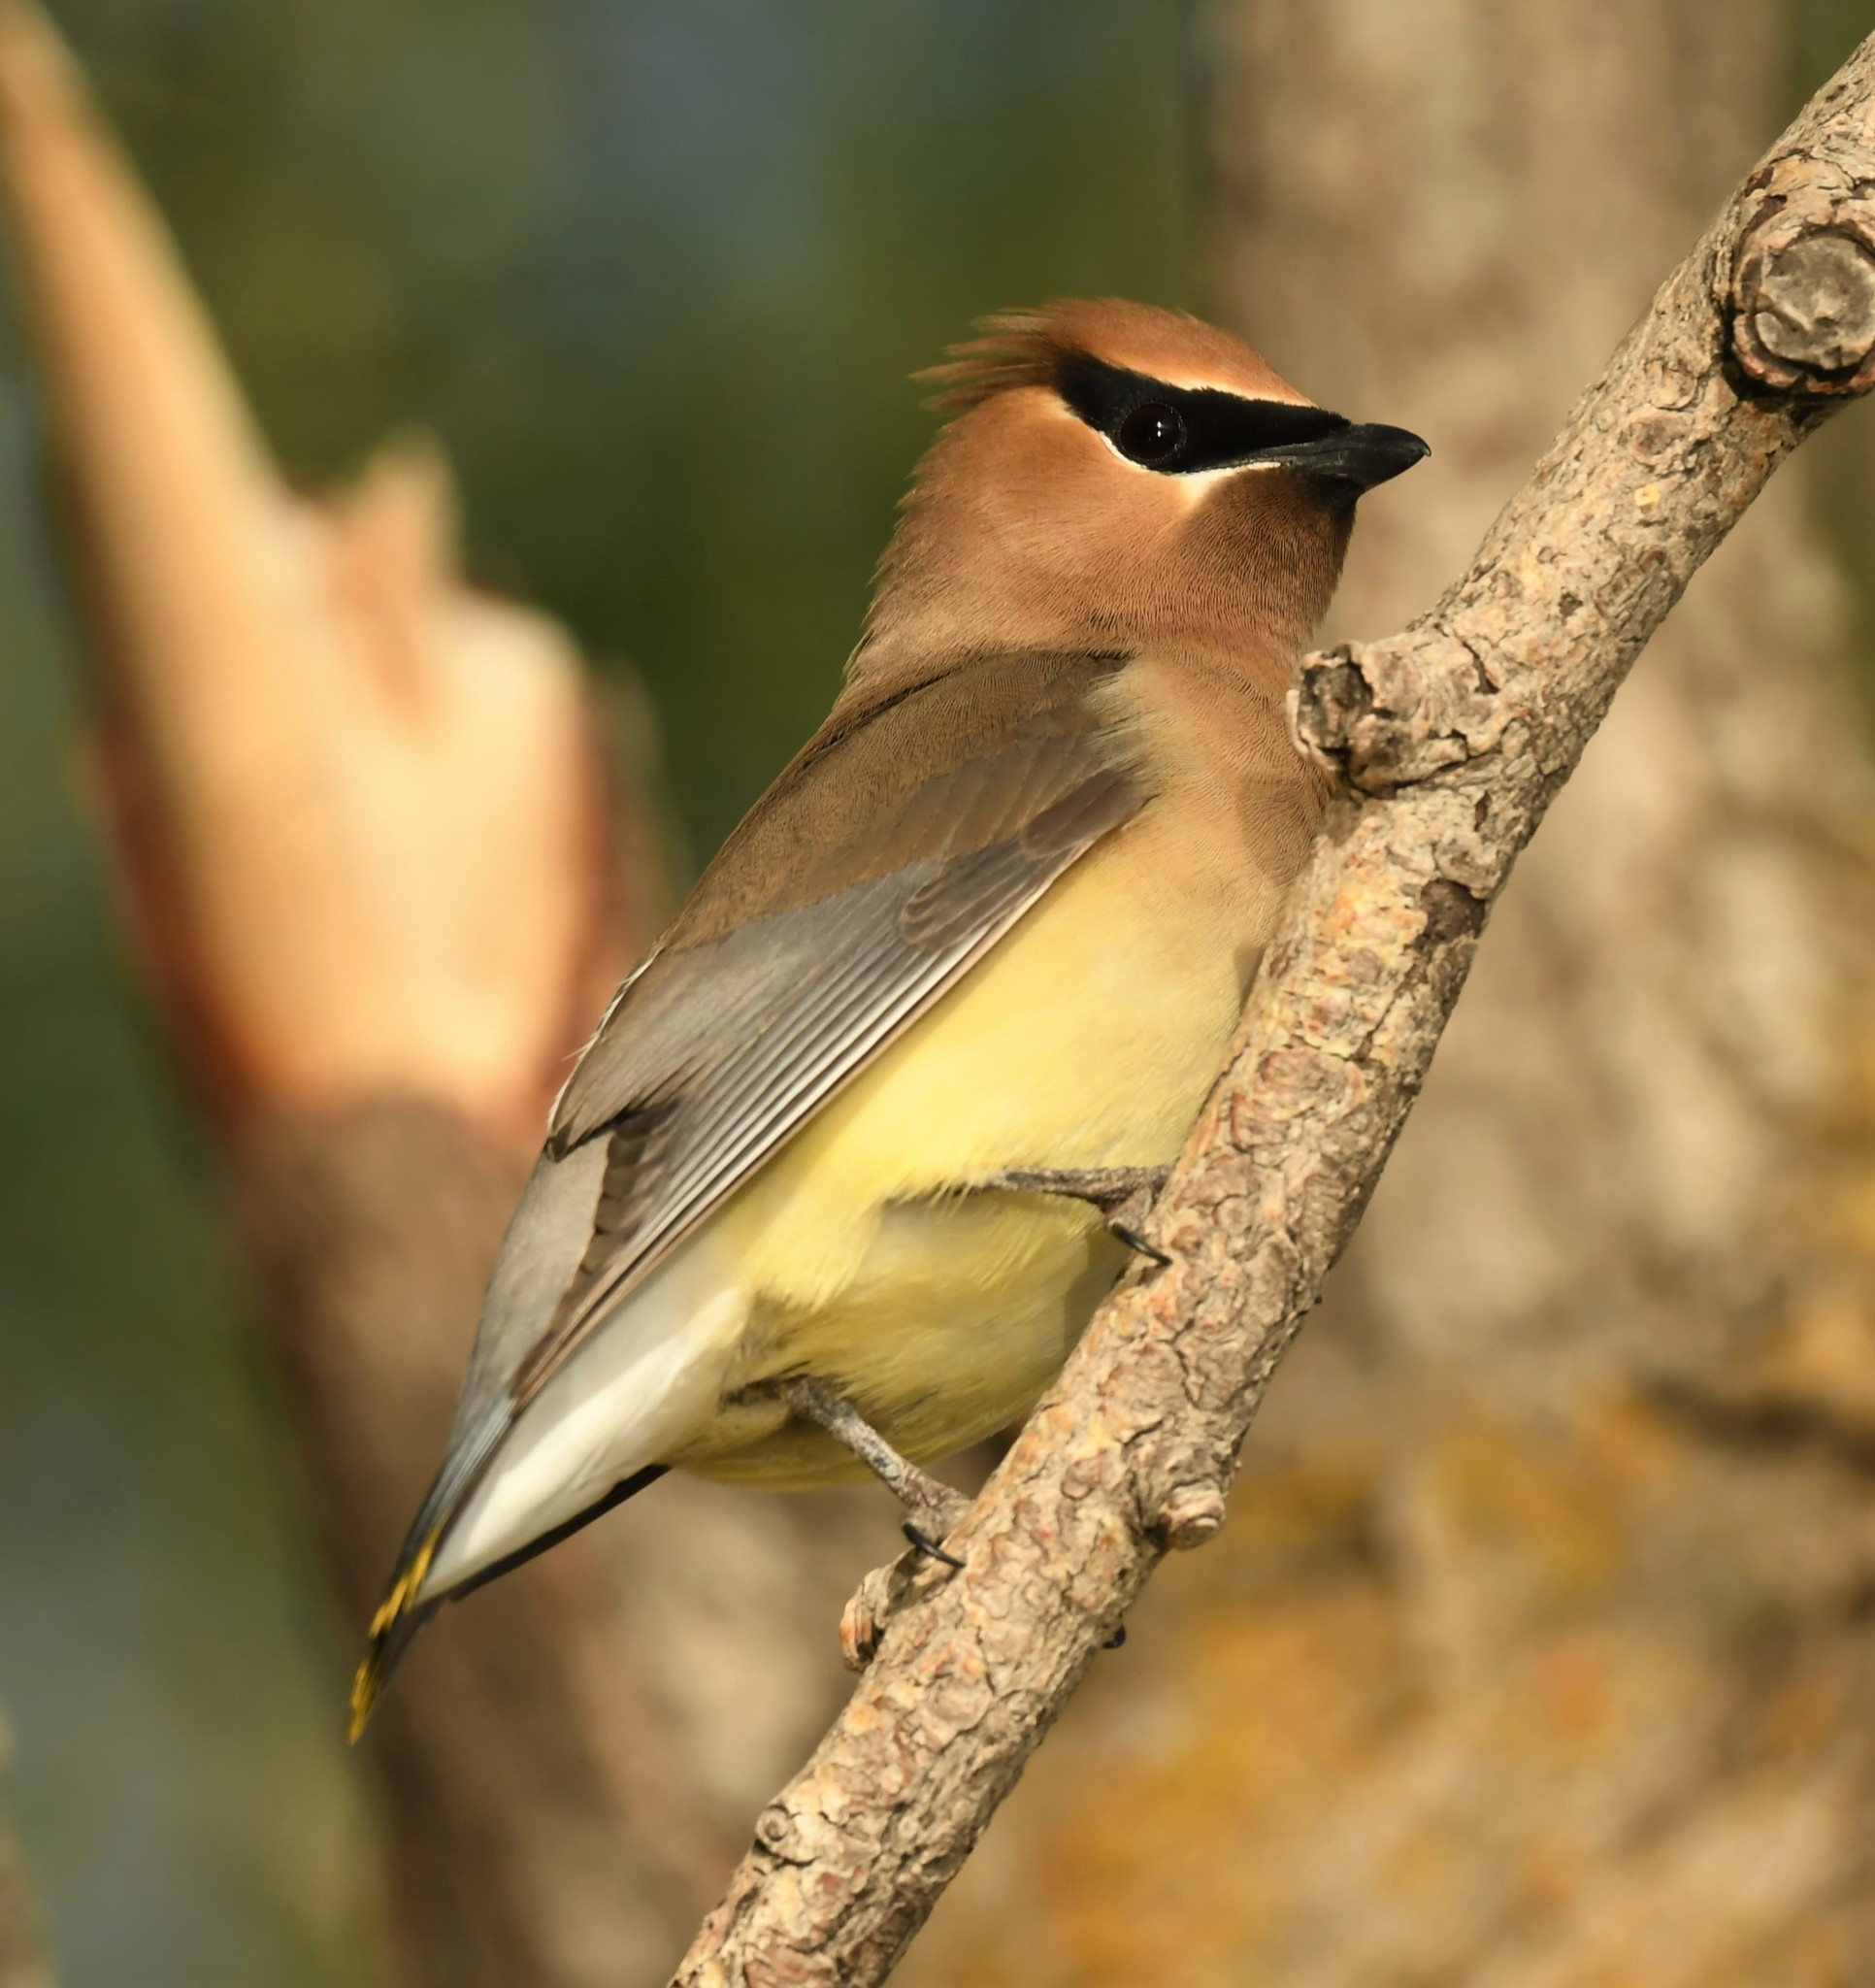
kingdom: Animalia
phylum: Chordata
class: Aves
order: Passeriformes
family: Bombycillidae
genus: Bombycilla
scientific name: Bombycilla cedrorum
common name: Cedar waxwing
